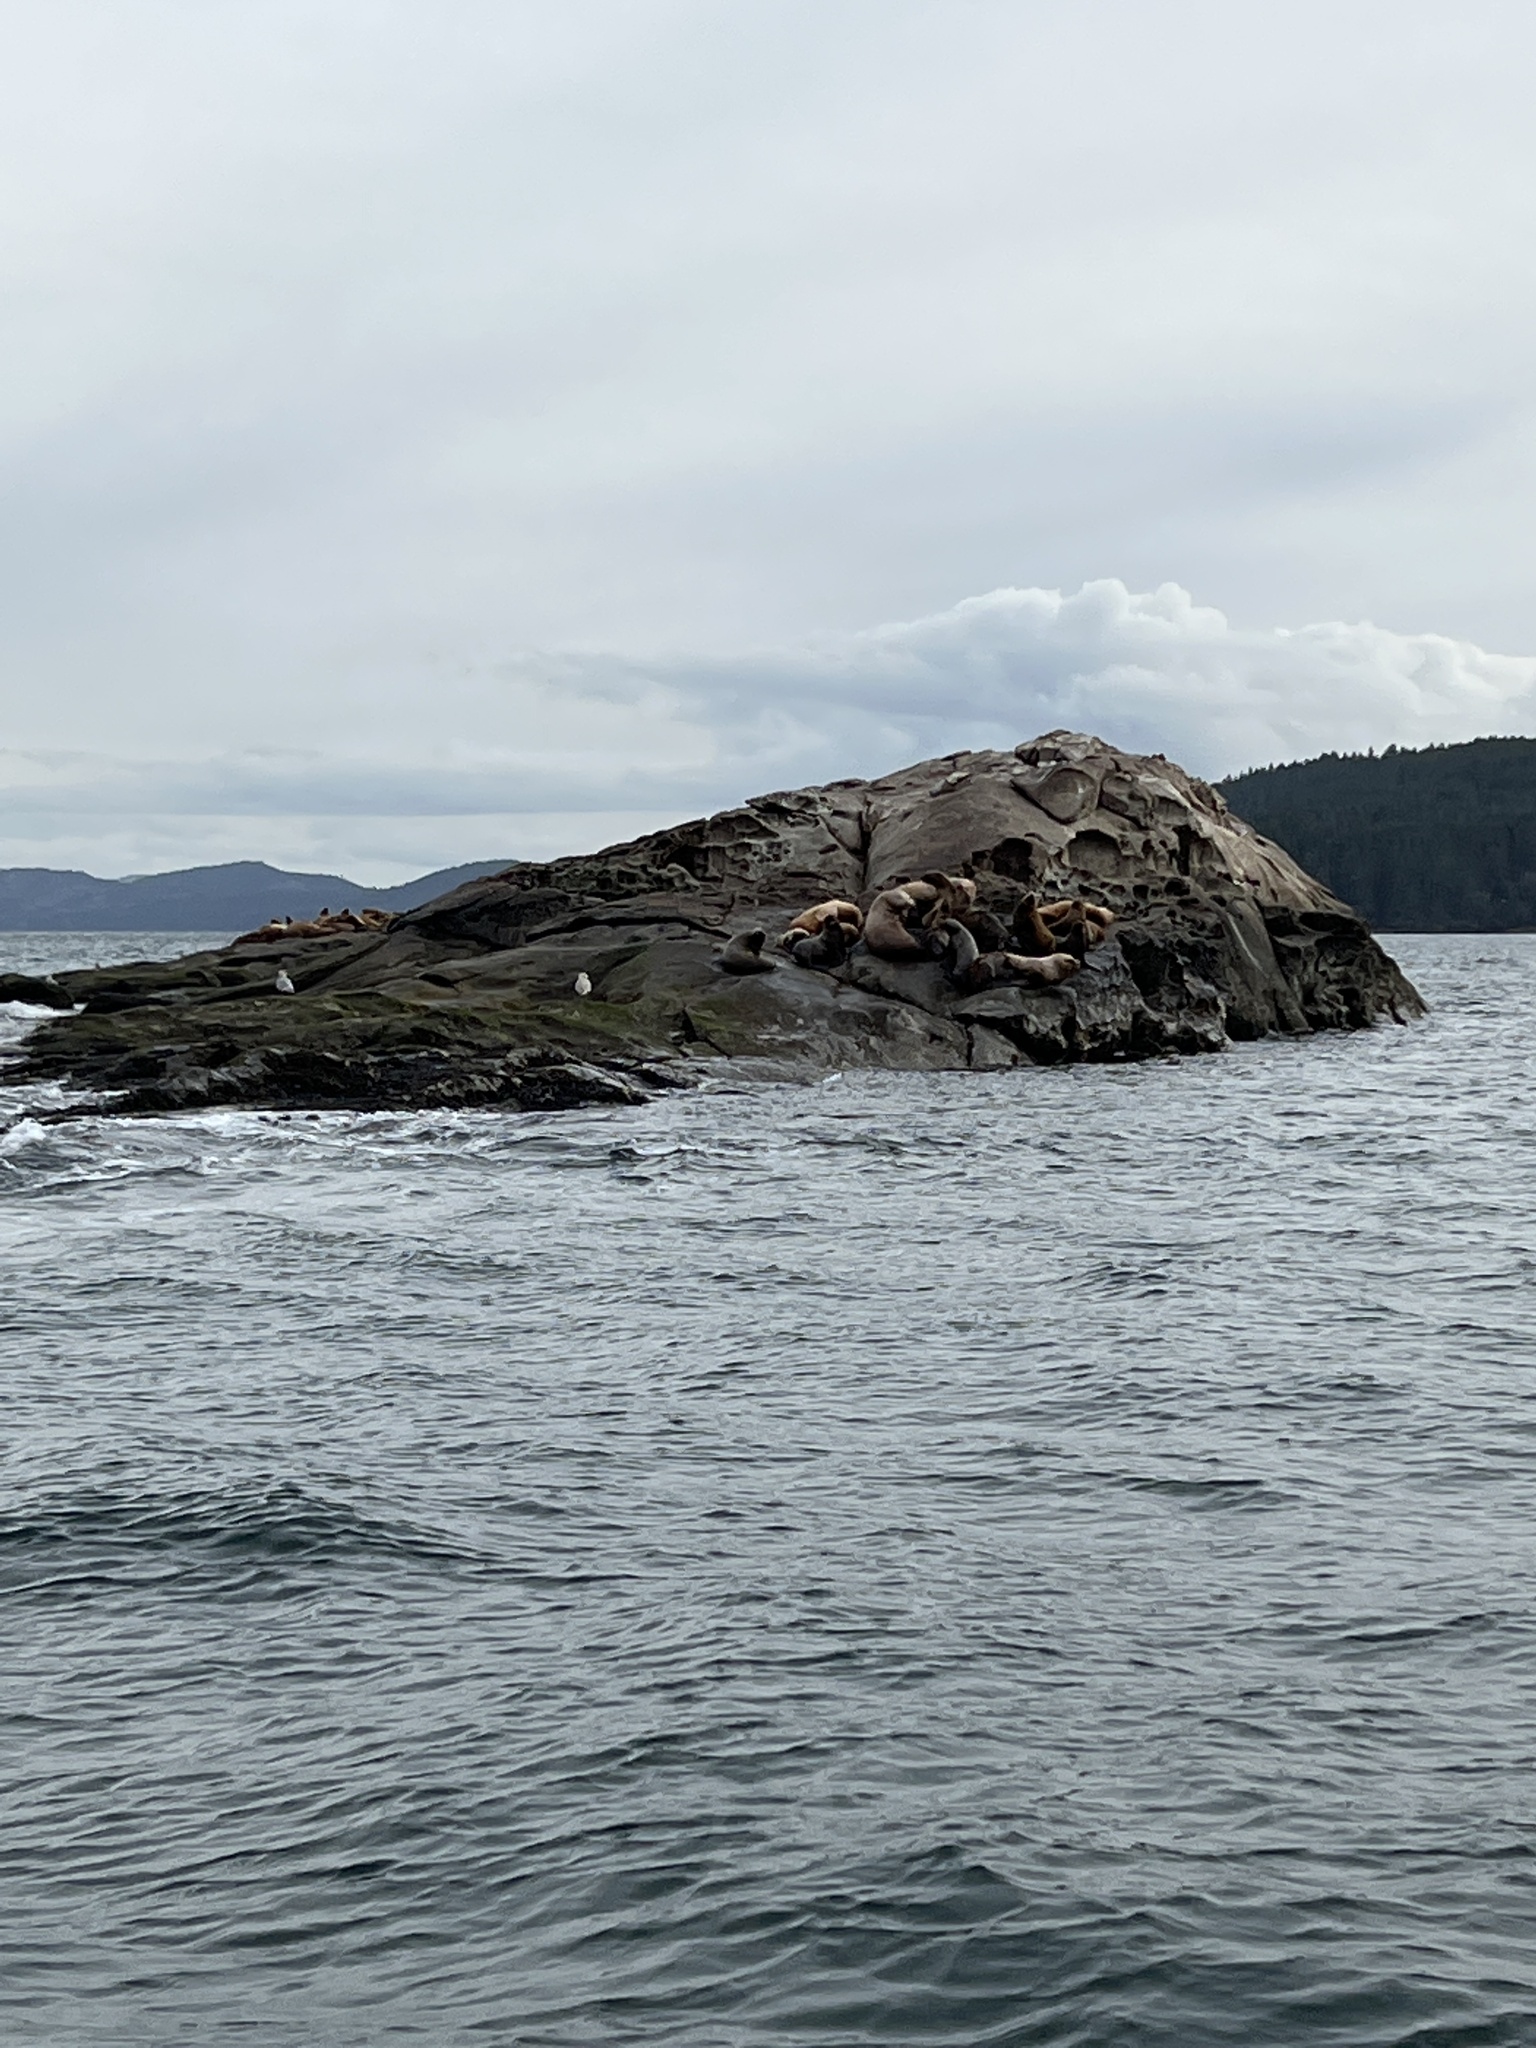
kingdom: Animalia
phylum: Chordata
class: Mammalia
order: Carnivora
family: Otariidae
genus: Eumetopias
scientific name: Eumetopias jubatus
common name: Steller sea lion
